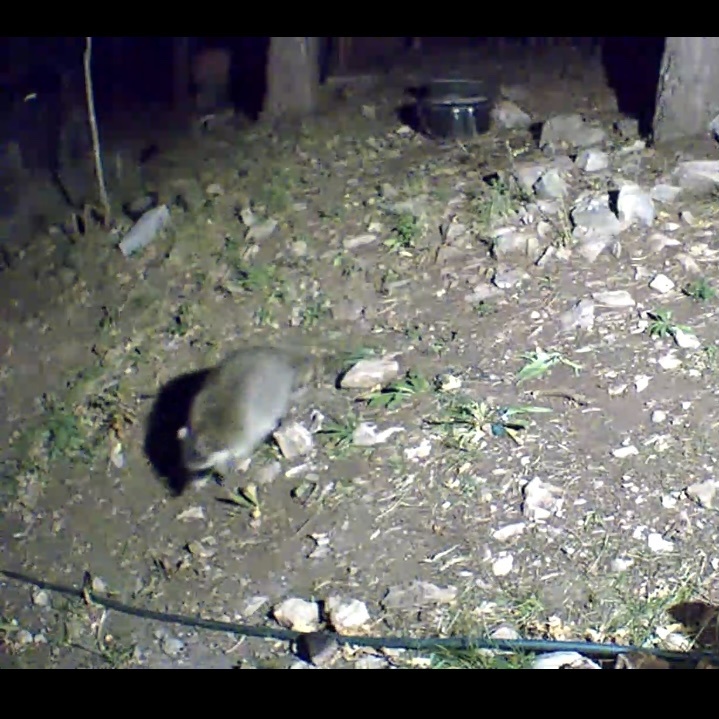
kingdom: Animalia
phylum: Chordata
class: Mammalia
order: Carnivora
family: Procyonidae
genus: Procyon
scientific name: Procyon lotor
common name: Raccoon
